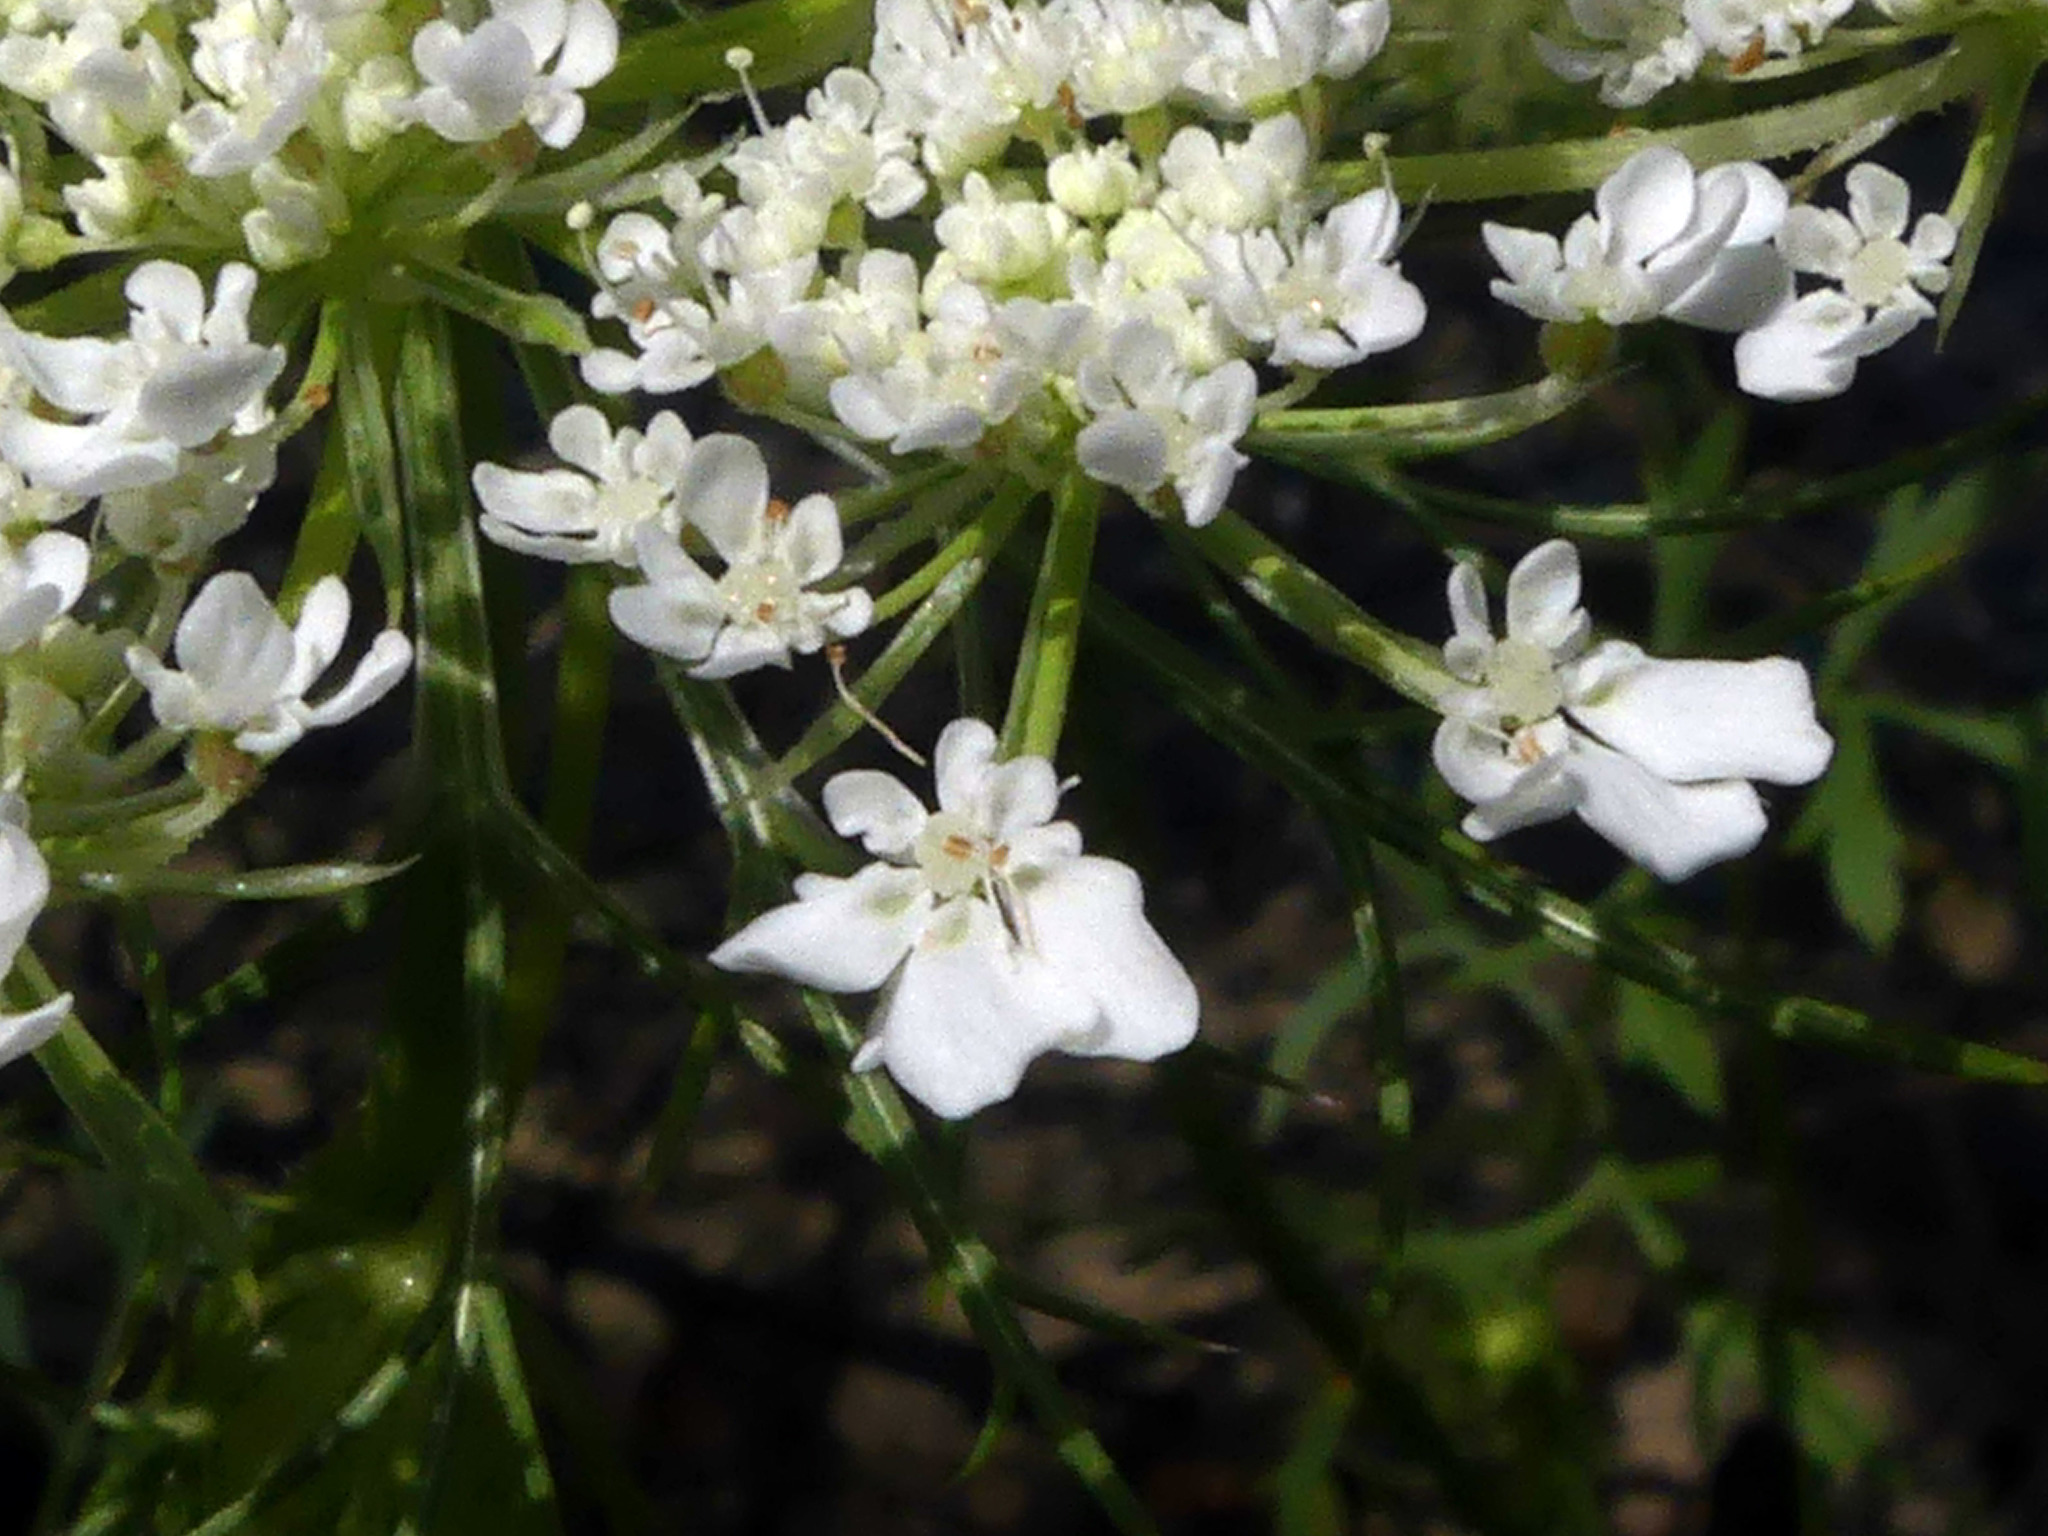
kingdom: Plantae
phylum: Tracheophyta
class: Magnoliopsida
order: Apiales
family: Apiaceae
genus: Daucus
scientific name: Daucus carota
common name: Wild carrot
